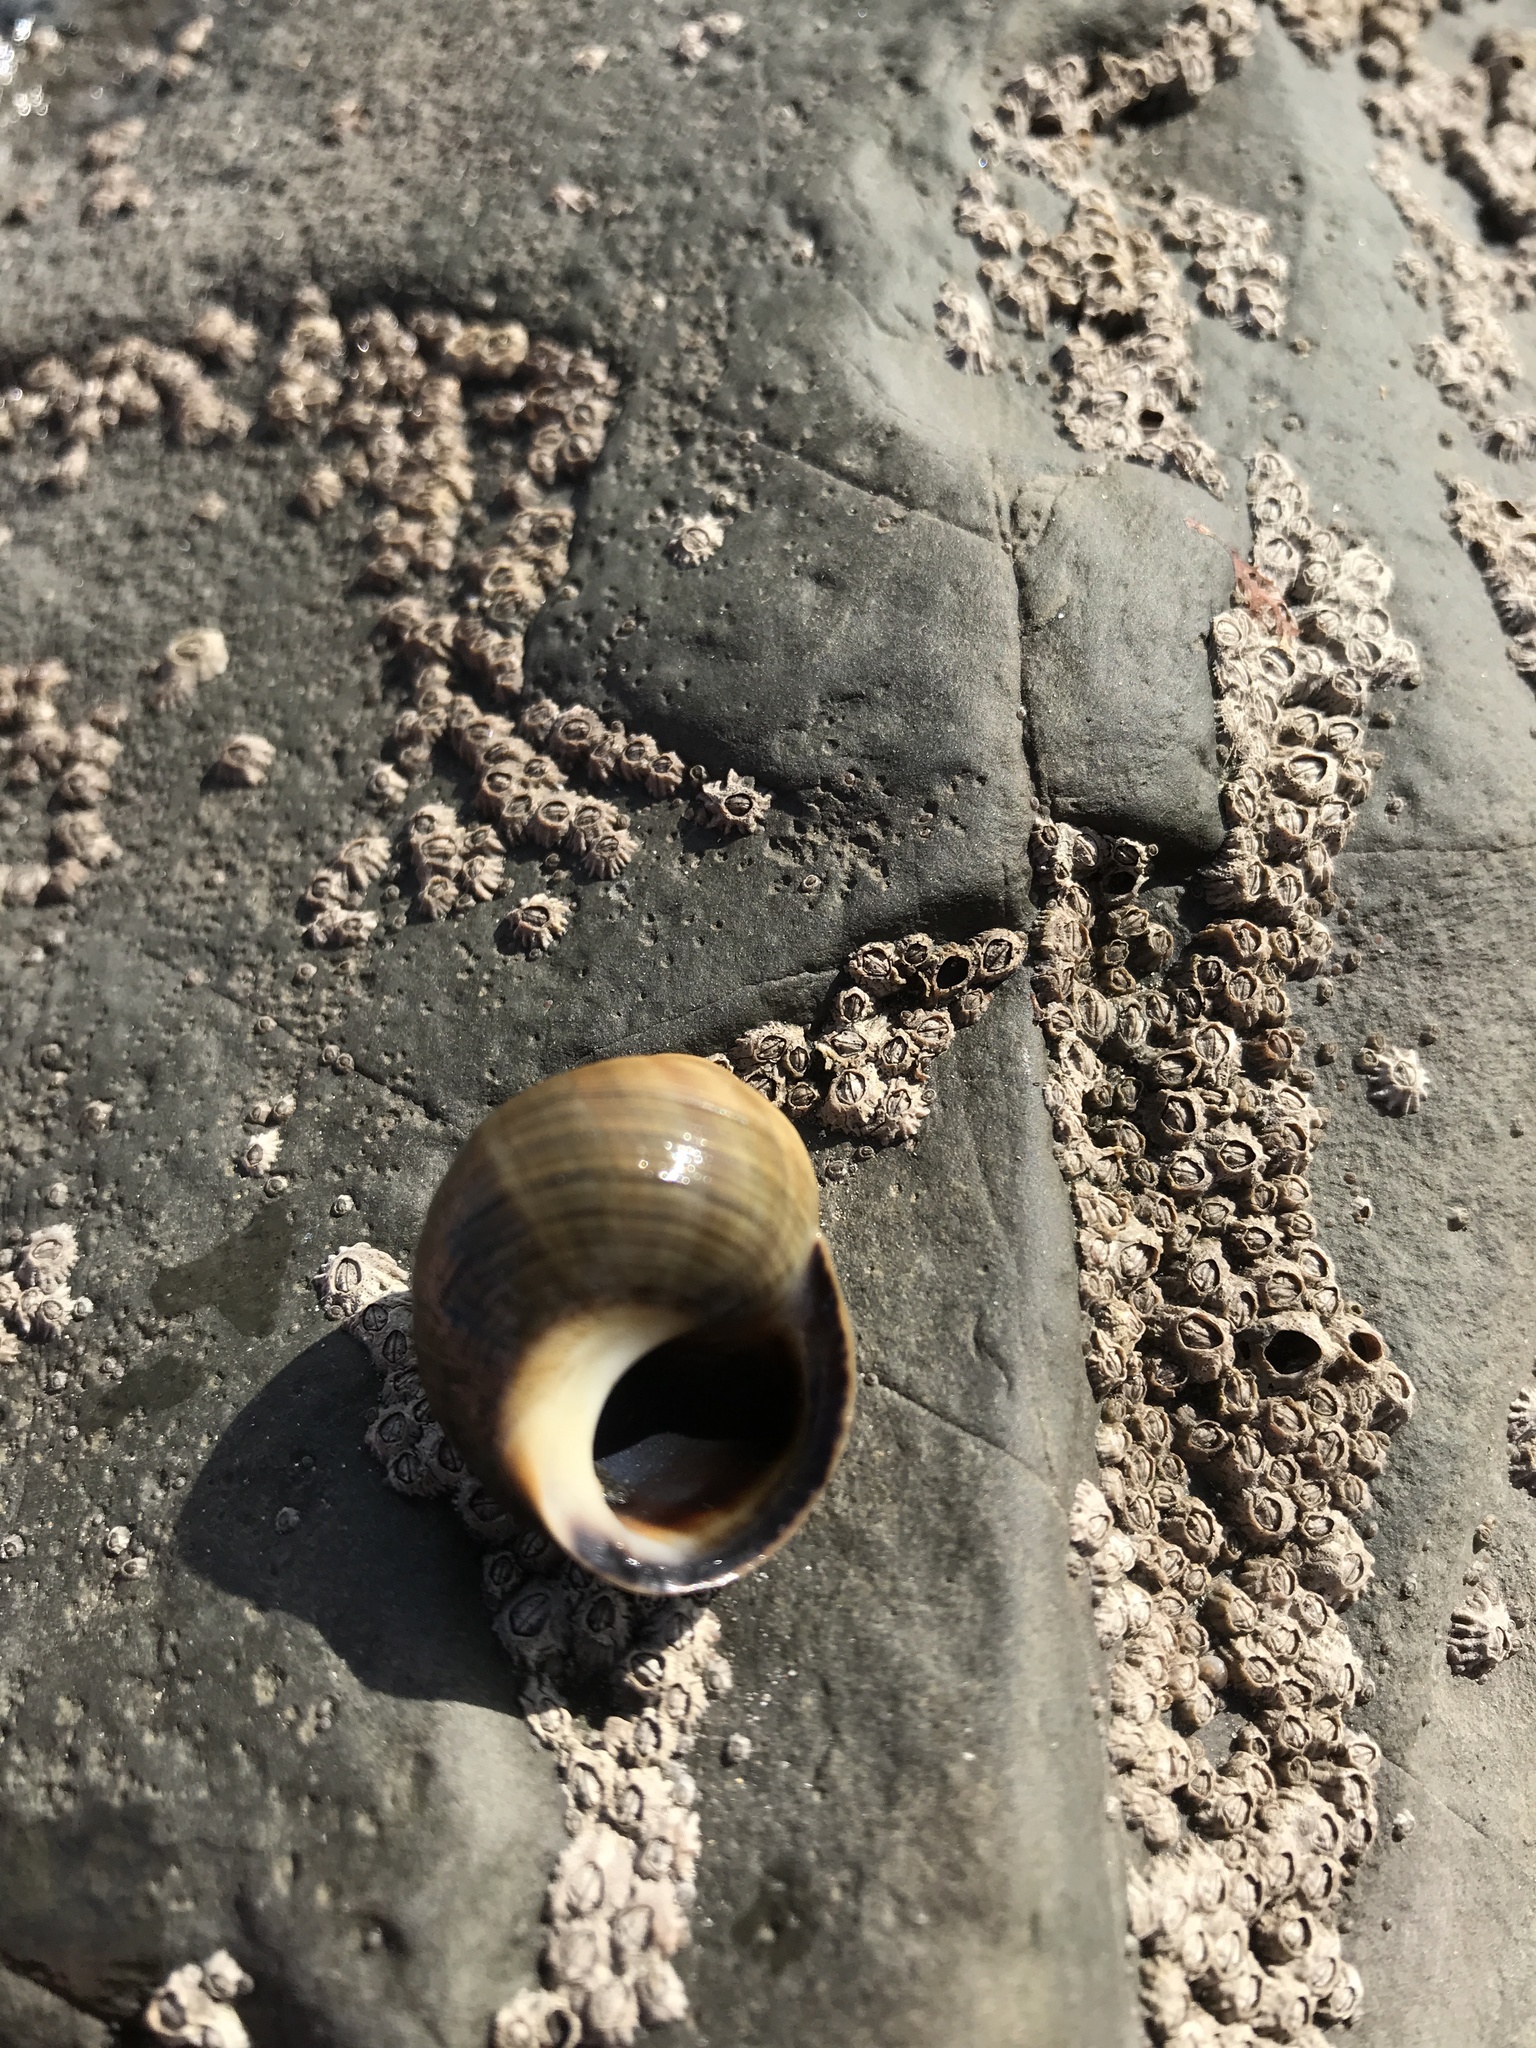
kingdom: Animalia
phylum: Mollusca
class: Gastropoda
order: Littorinimorpha
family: Littorinidae
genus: Littorina
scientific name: Littorina littorea
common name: Common periwinkle
